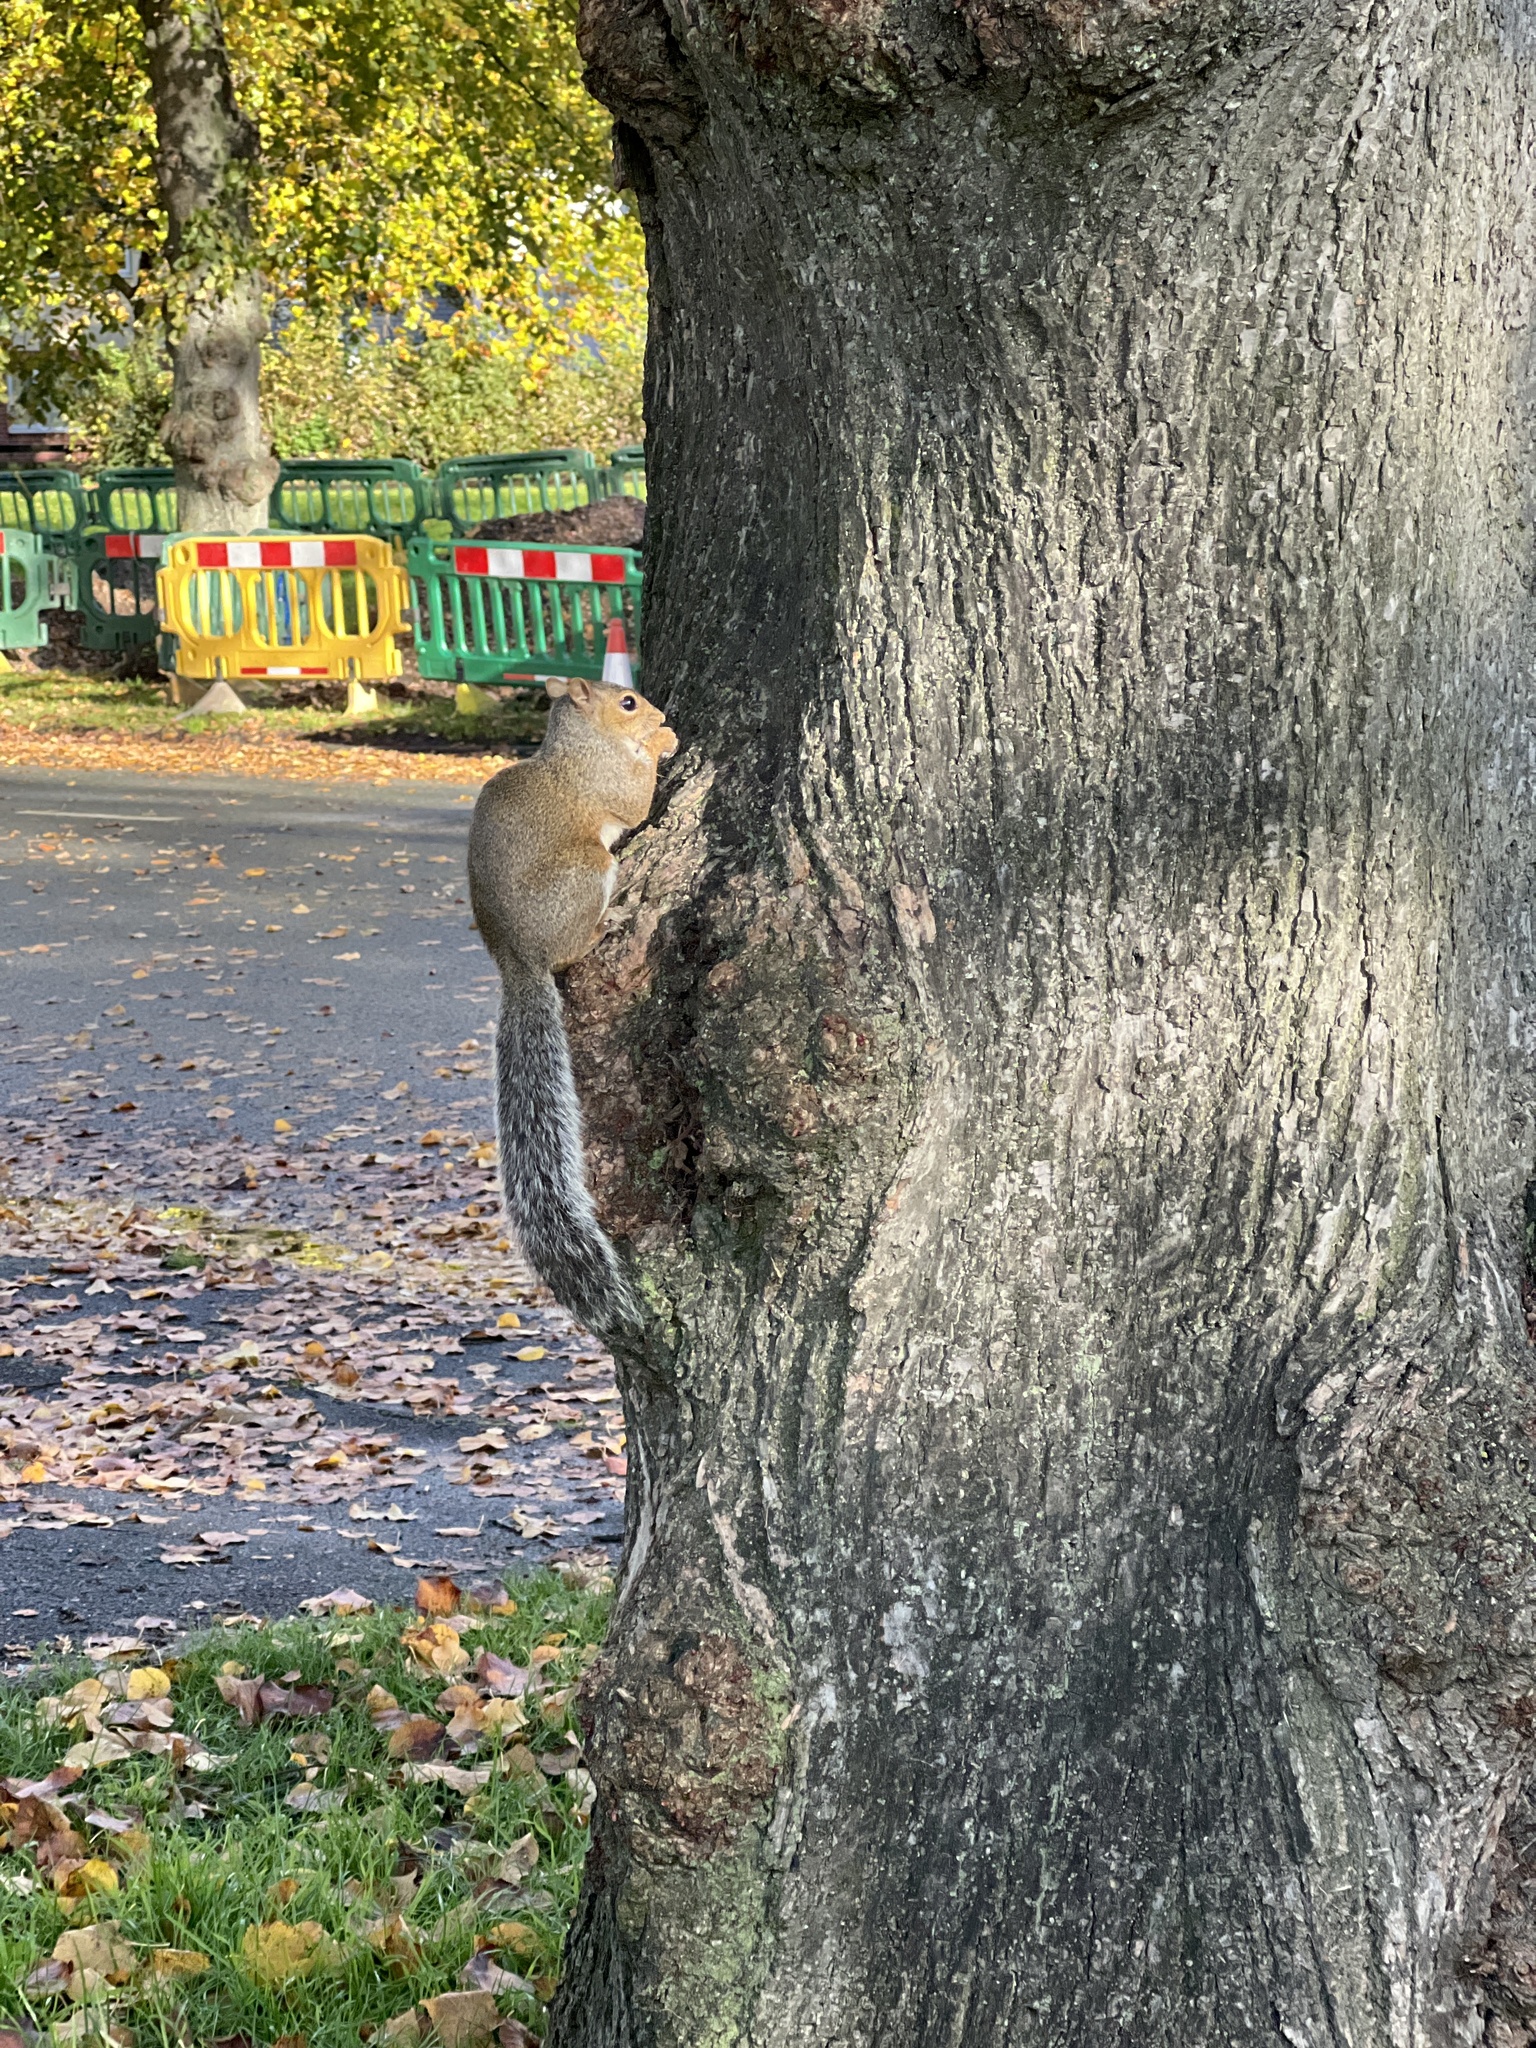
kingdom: Animalia
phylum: Chordata
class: Mammalia
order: Rodentia
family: Sciuridae
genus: Sciurus
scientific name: Sciurus carolinensis
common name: Eastern gray squirrel
